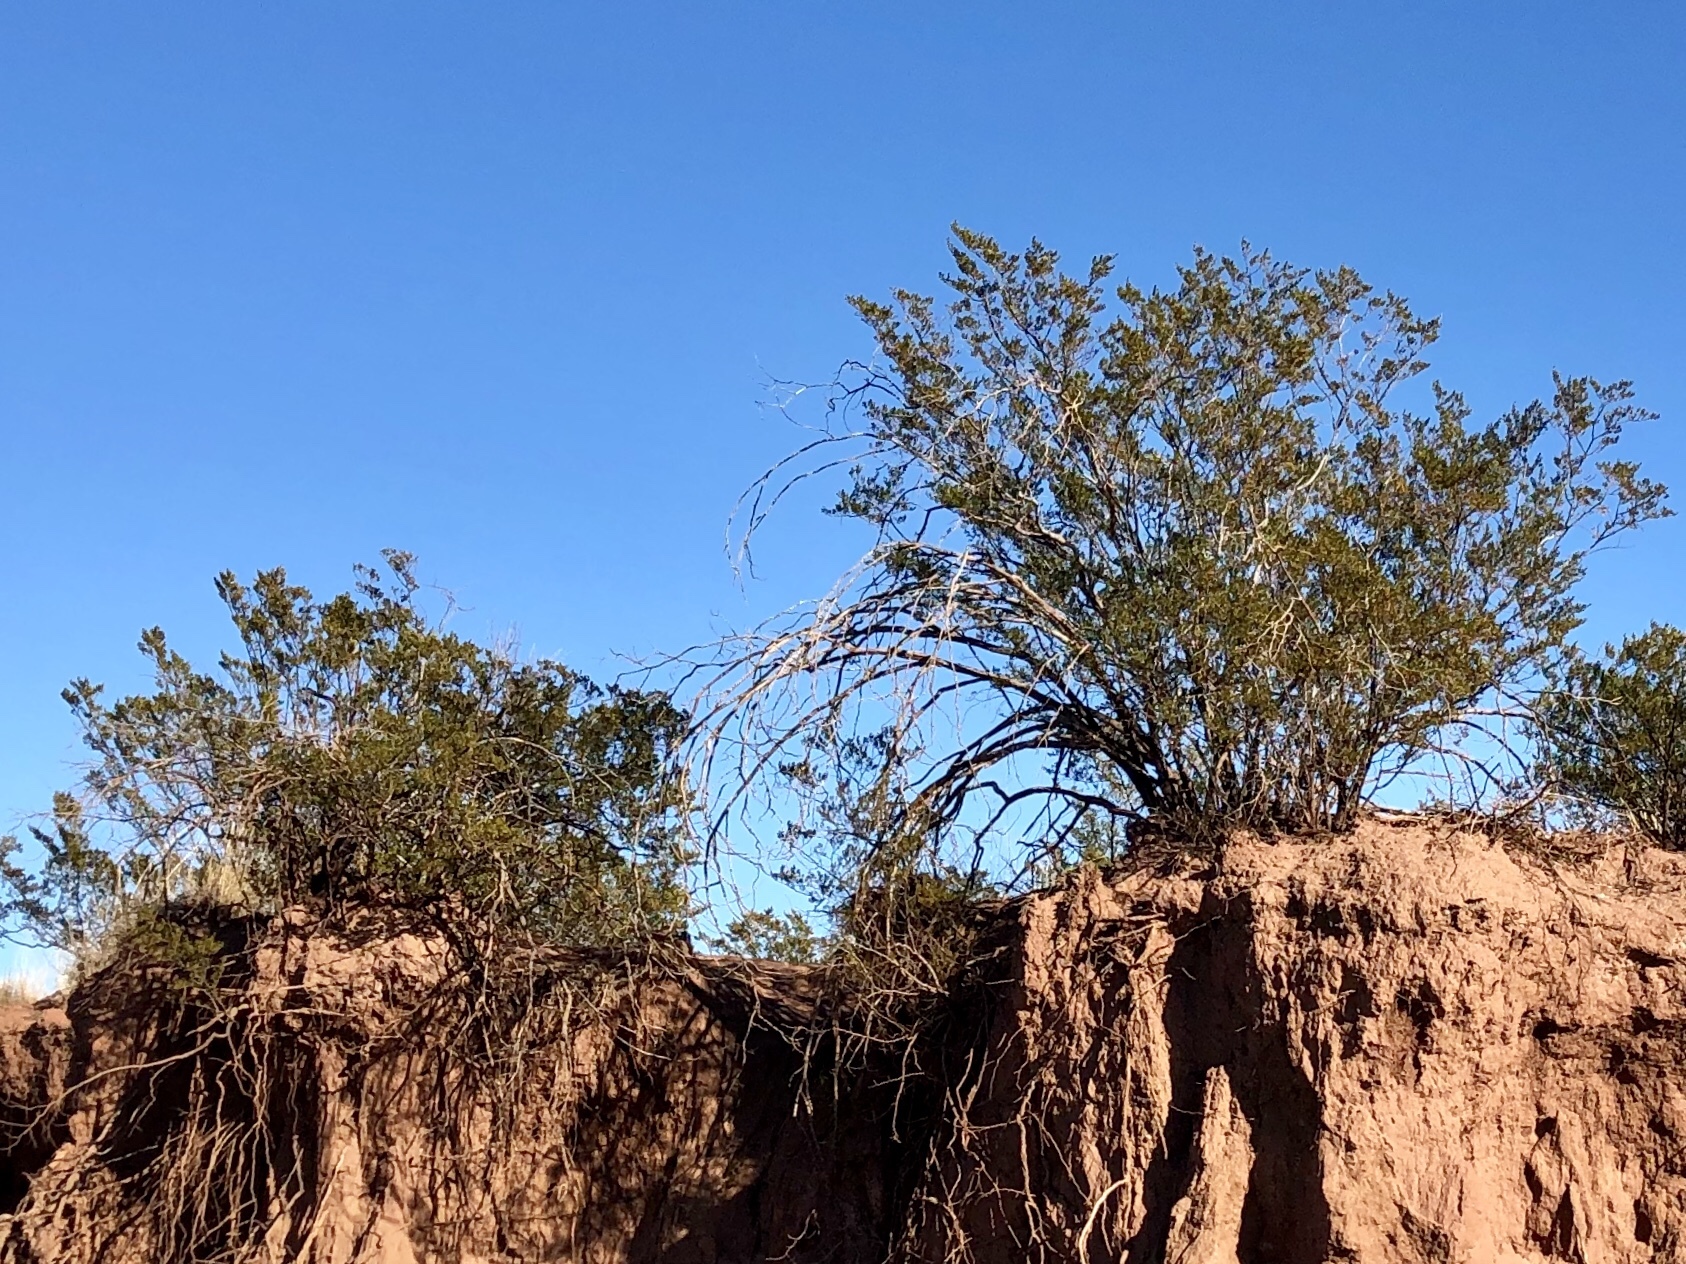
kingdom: Plantae
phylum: Tracheophyta
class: Magnoliopsida
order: Zygophyllales
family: Zygophyllaceae
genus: Larrea
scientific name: Larrea tridentata
